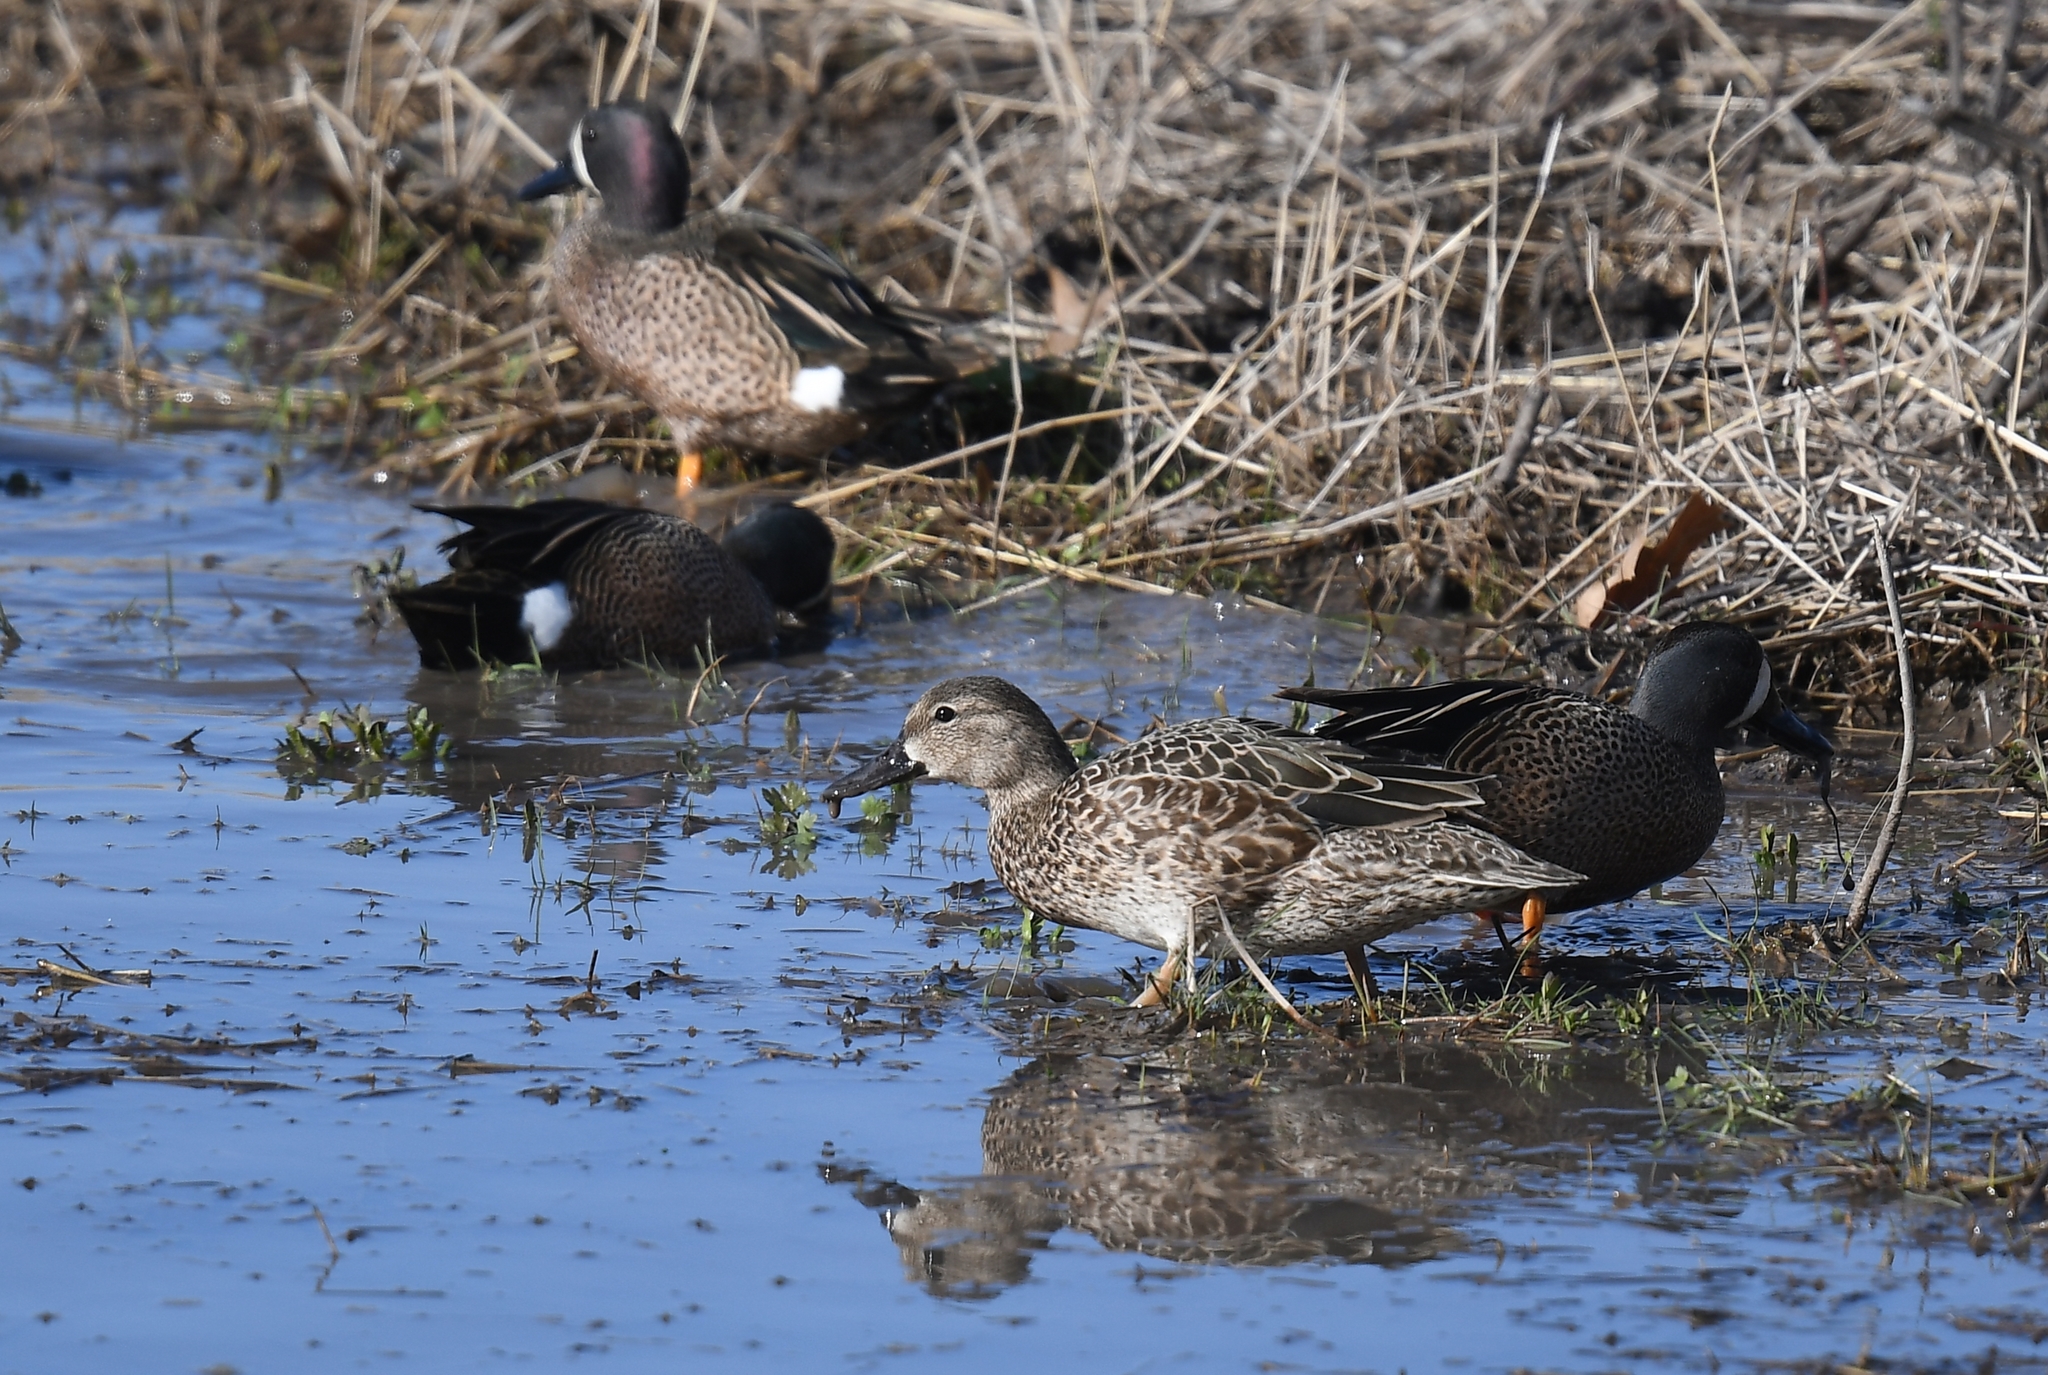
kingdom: Animalia
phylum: Chordata
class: Aves
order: Anseriformes
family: Anatidae
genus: Spatula
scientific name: Spatula discors
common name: Blue-winged teal
